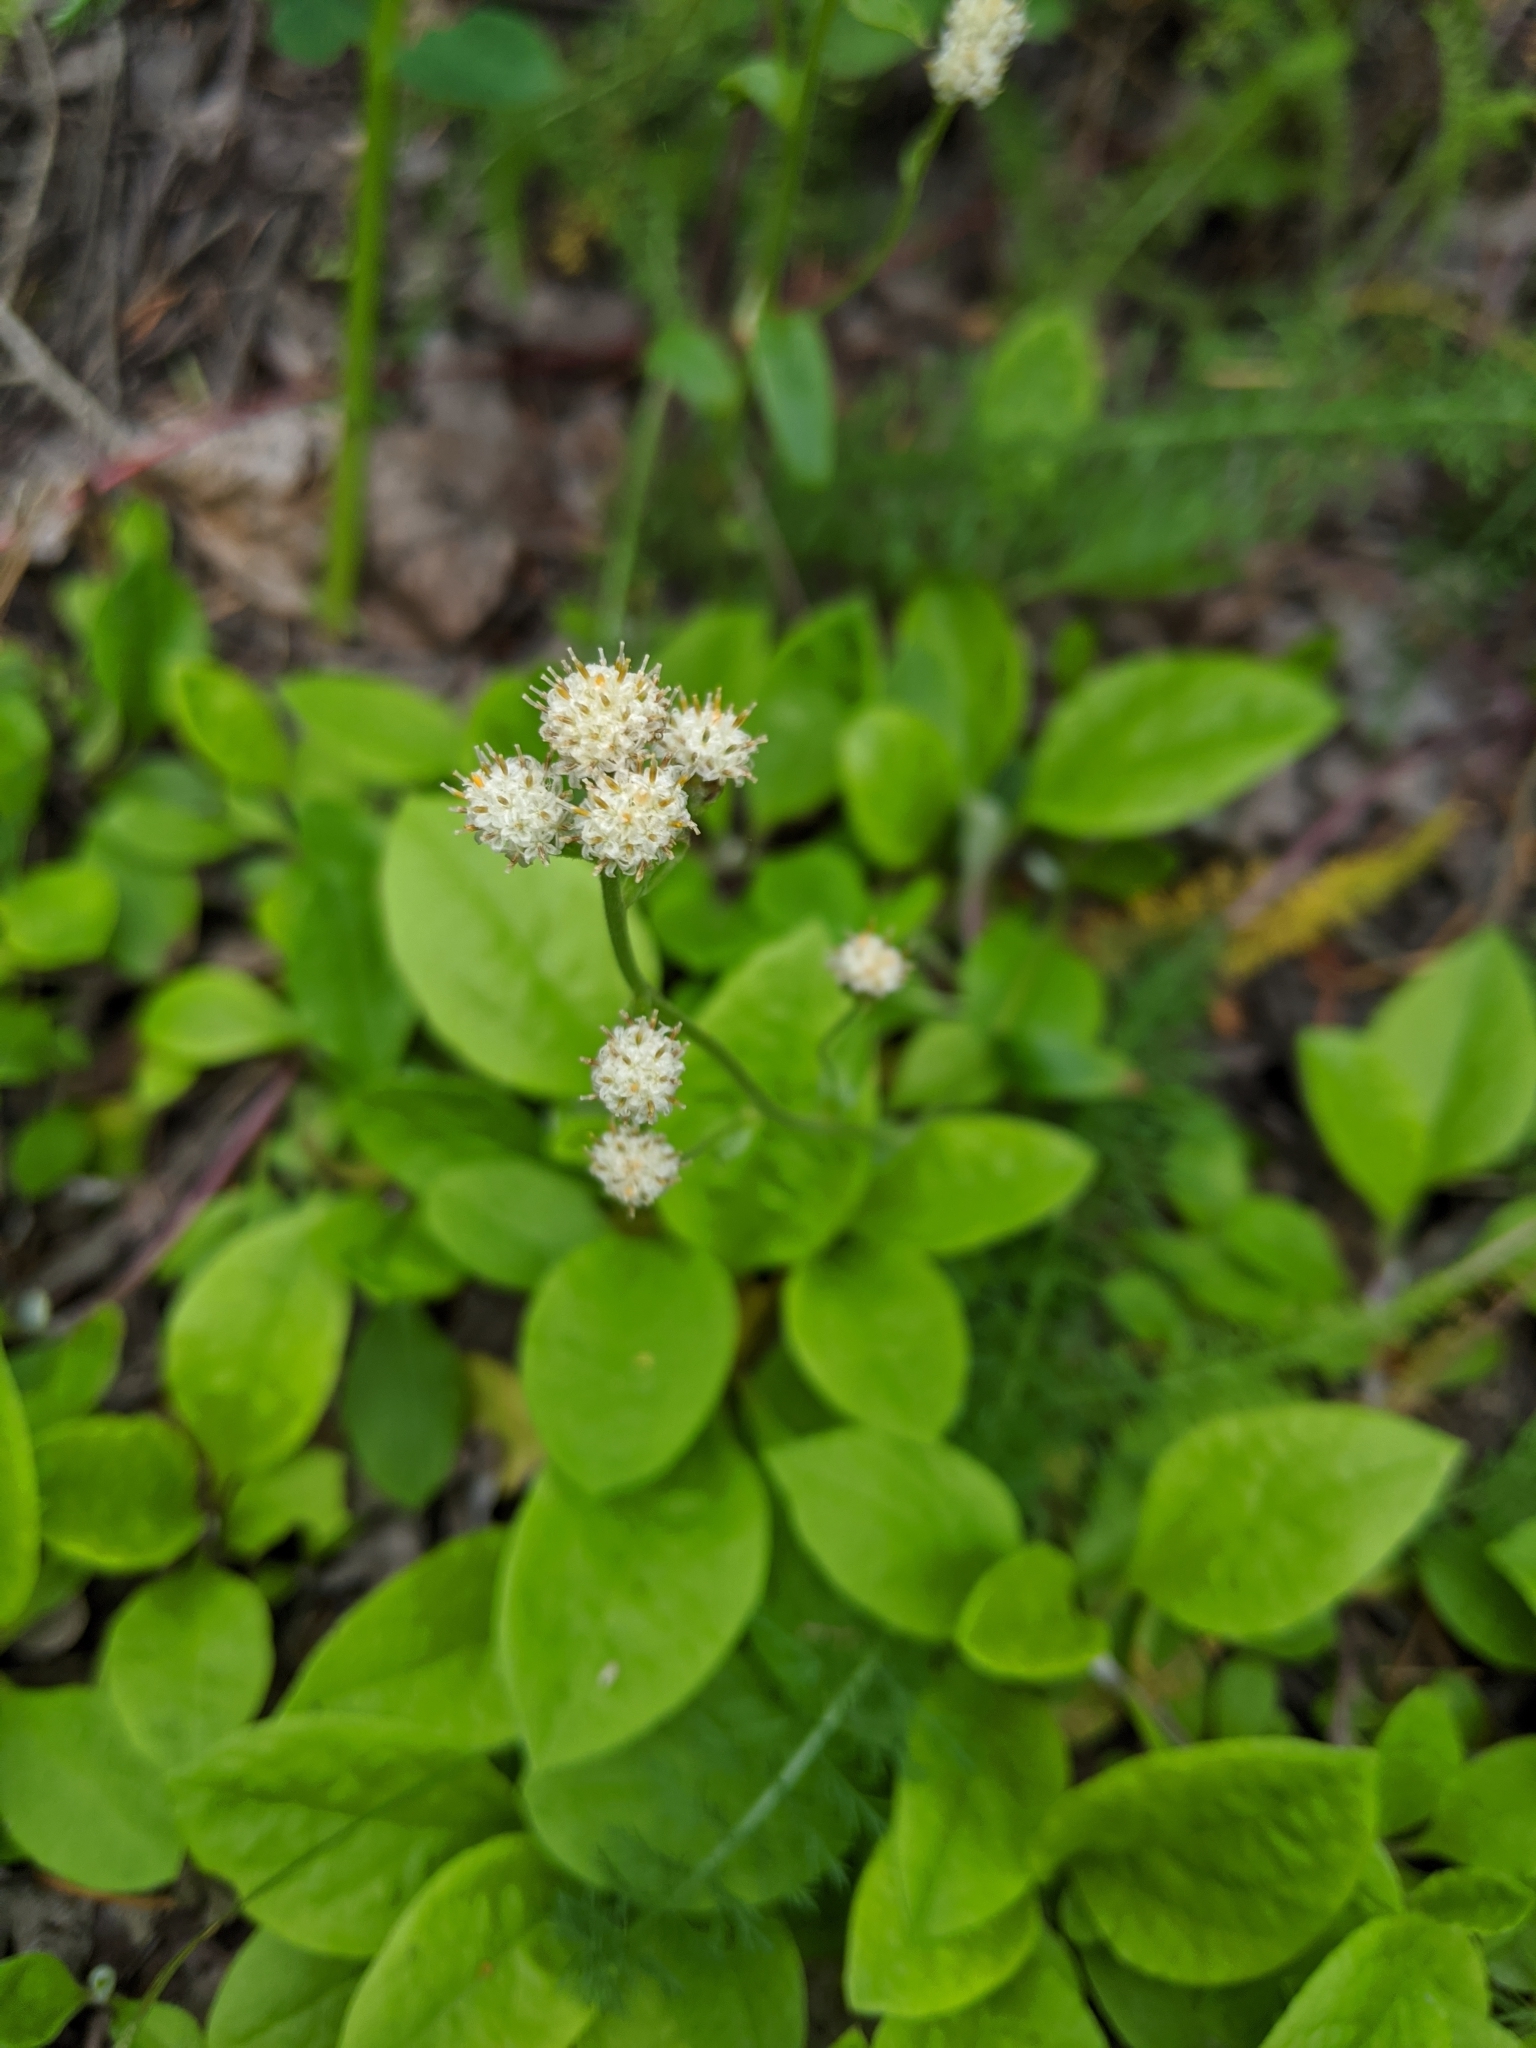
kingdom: Plantae
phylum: Tracheophyta
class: Magnoliopsida
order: Asterales
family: Asteraceae
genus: Antennaria
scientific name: Antennaria racemosa
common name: Racemose pussytoes
